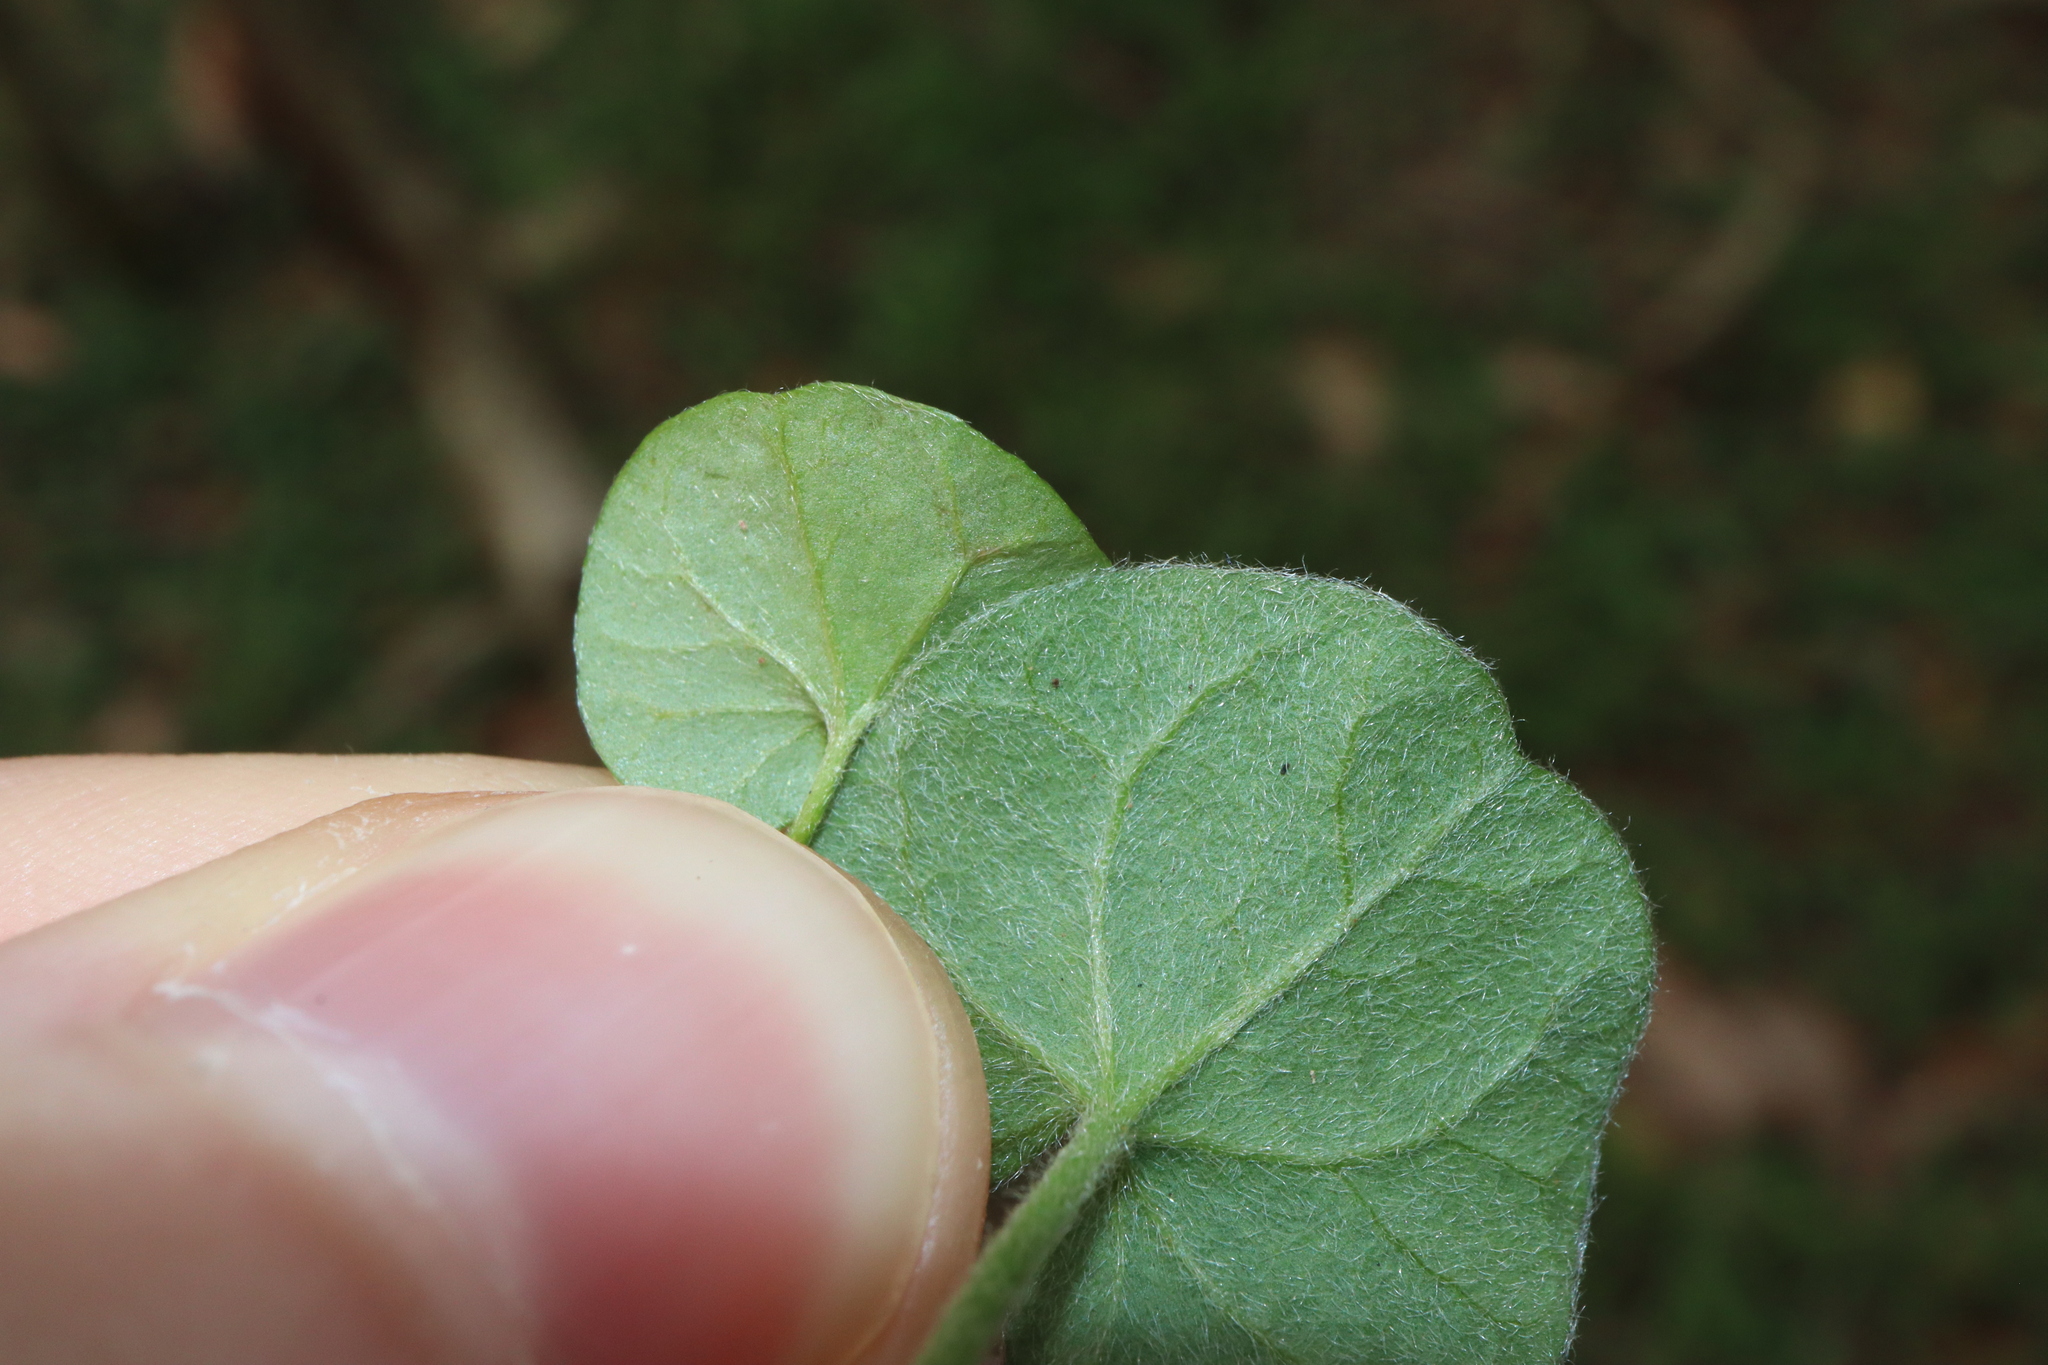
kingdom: Plantae
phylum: Tracheophyta
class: Magnoliopsida
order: Solanales
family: Convolvulaceae
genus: Dichondra
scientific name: Dichondra repens
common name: Kidneyweed
